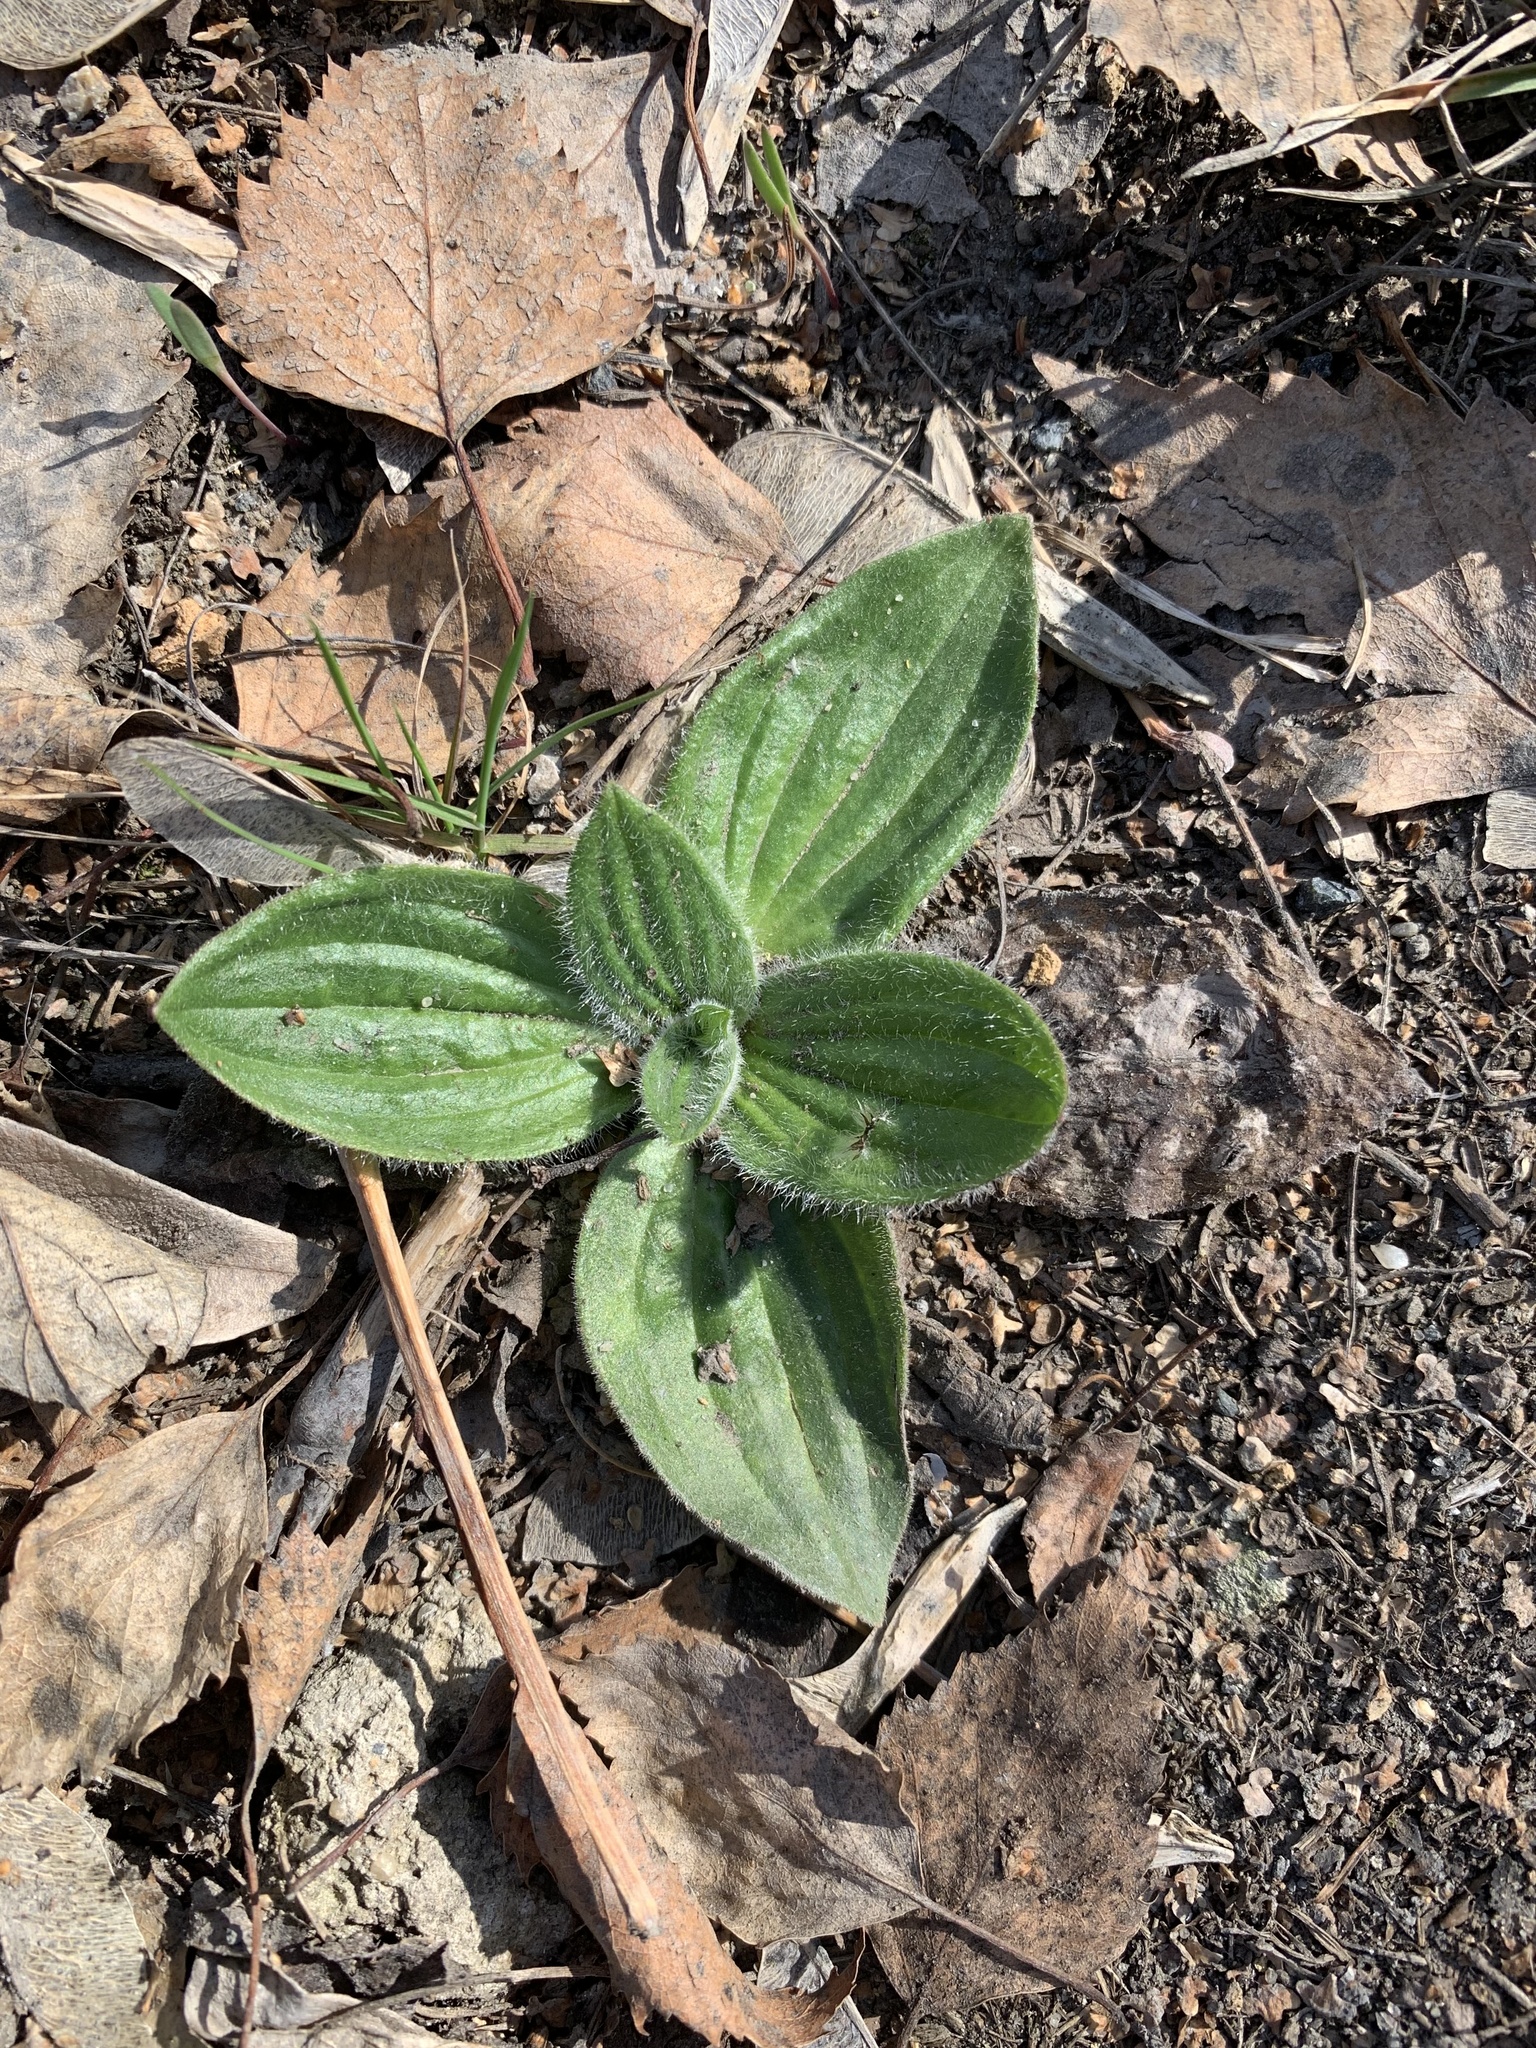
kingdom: Plantae
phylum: Tracheophyta
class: Magnoliopsida
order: Lamiales
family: Plantaginaceae
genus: Plantago
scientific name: Plantago media
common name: Hoary plantain
